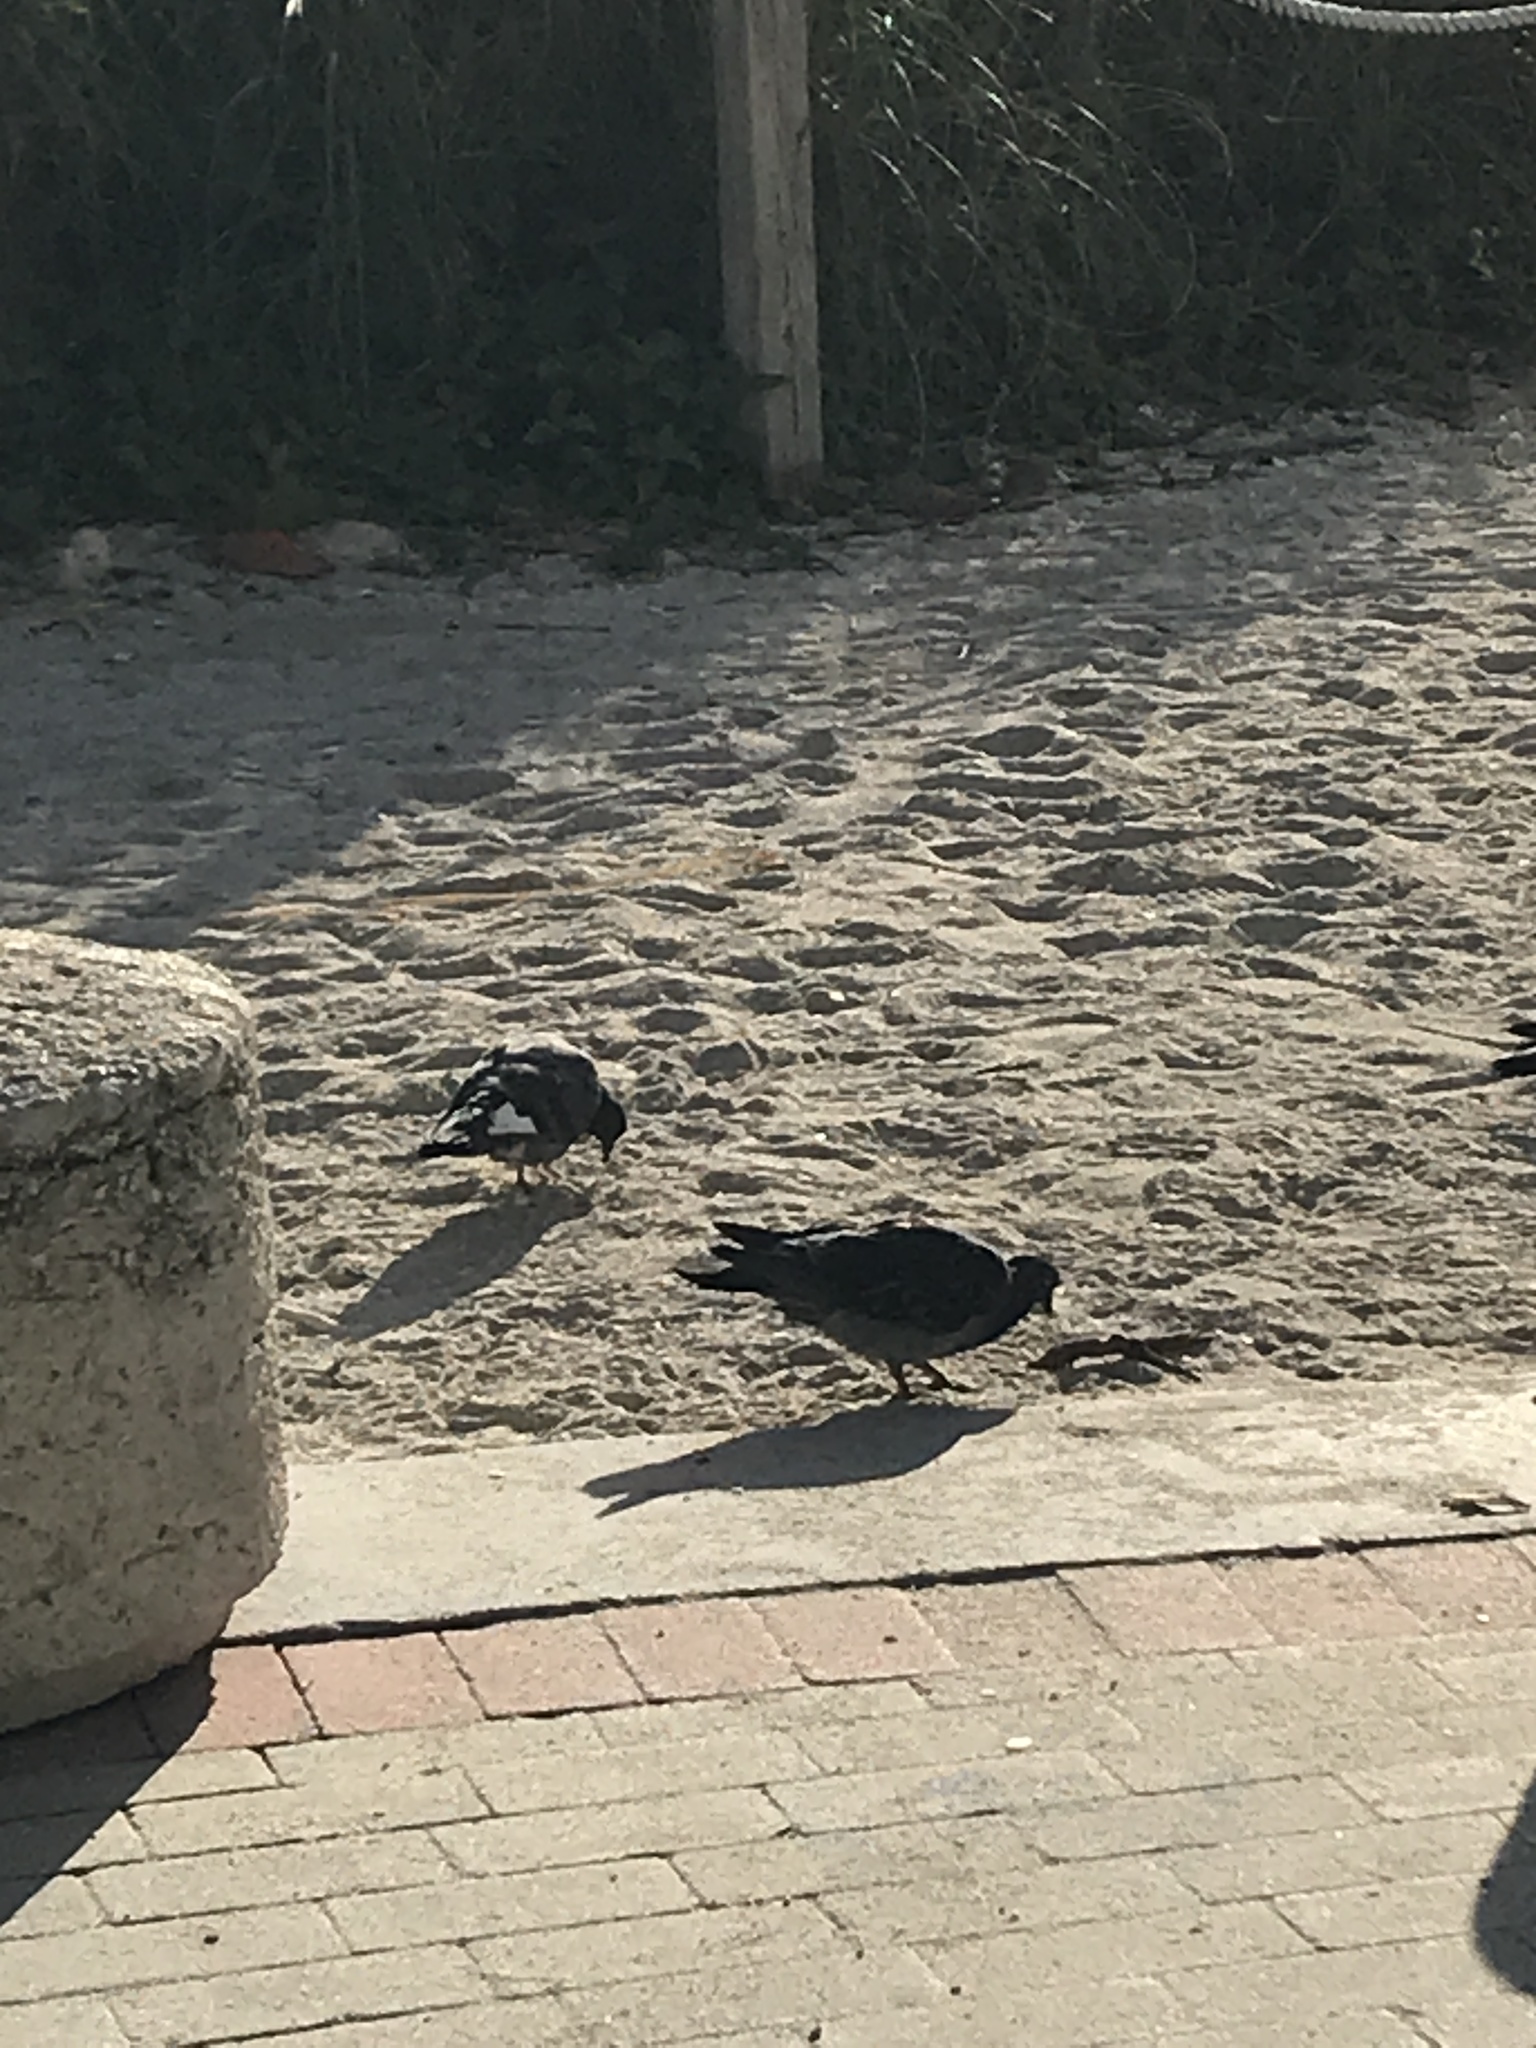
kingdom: Animalia
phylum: Chordata
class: Aves
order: Columbiformes
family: Columbidae
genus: Columba
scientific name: Columba livia
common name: Rock pigeon
